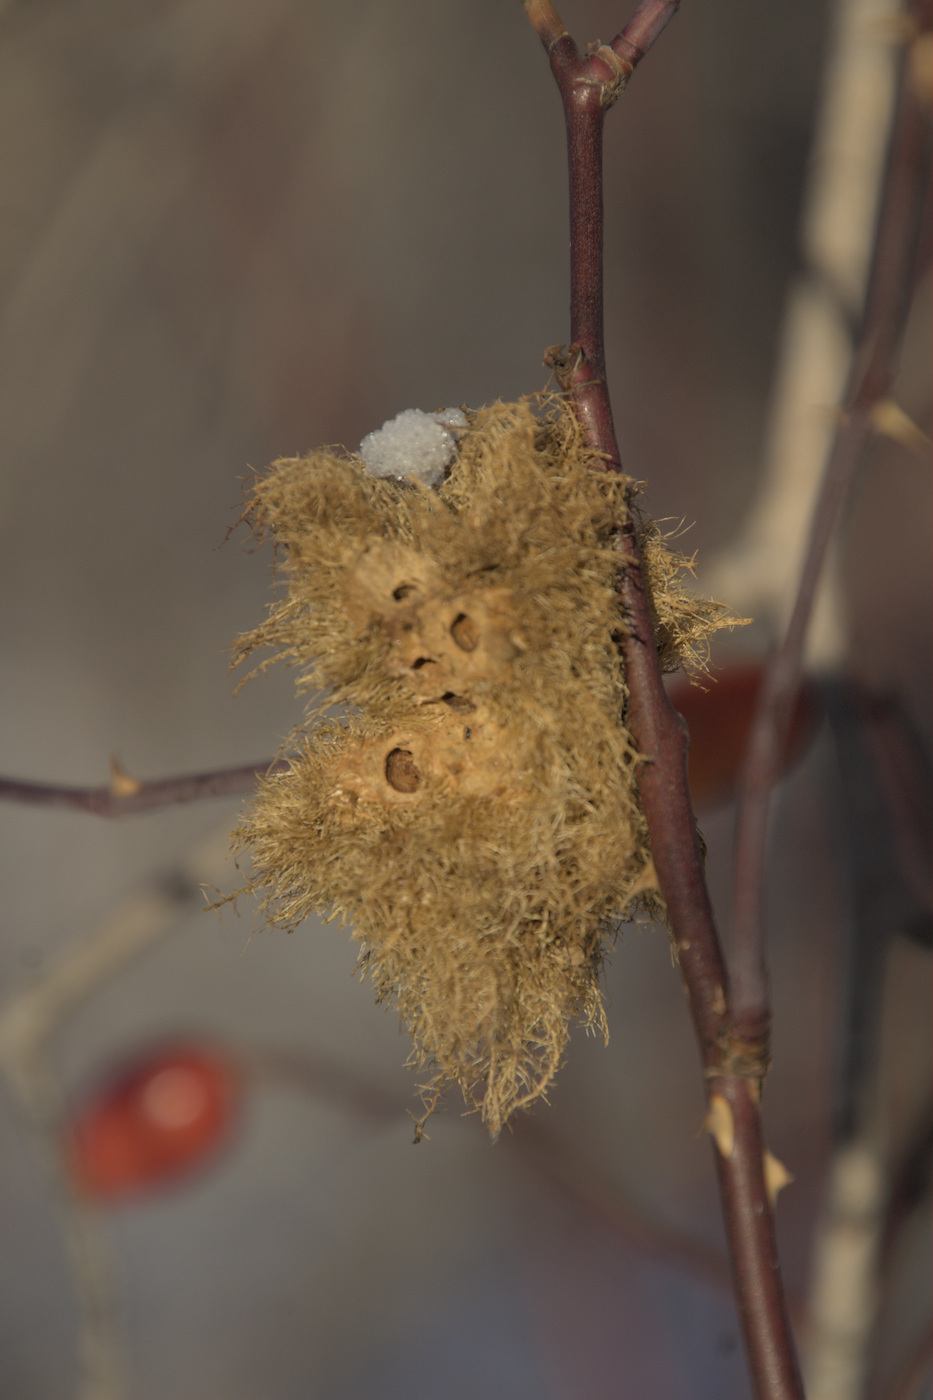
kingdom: Animalia
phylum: Arthropoda
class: Insecta
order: Hymenoptera
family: Cynipidae
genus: Diplolepis
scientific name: Diplolepis rosae
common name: Bedeguar gall
